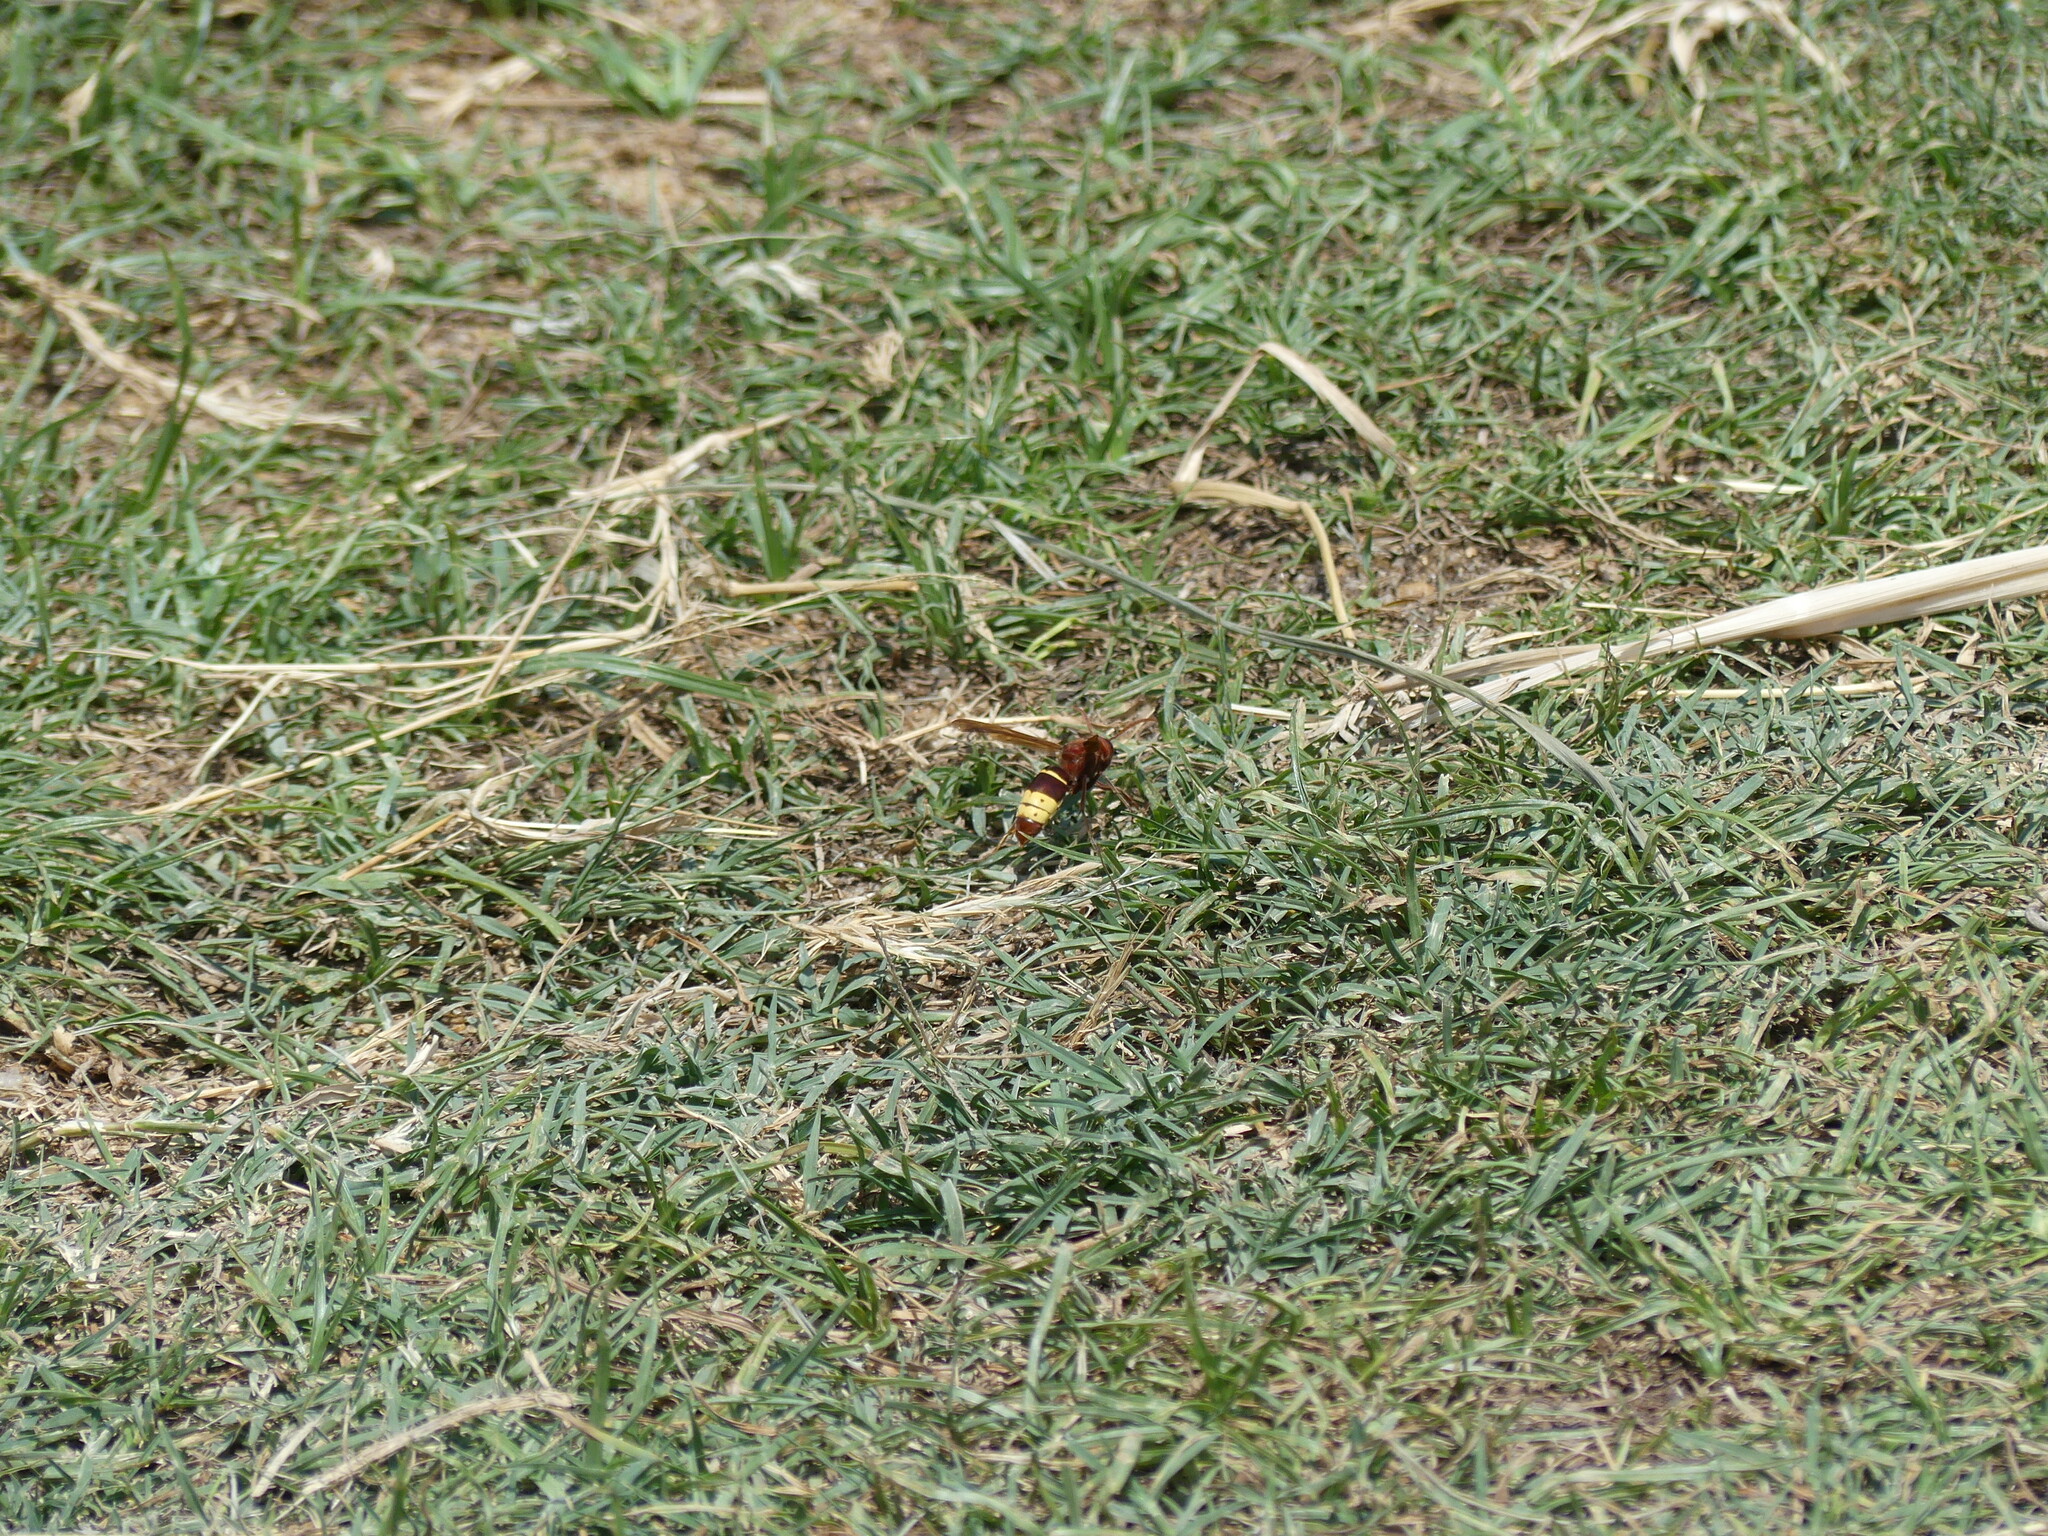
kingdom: Animalia
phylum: Arthropoda
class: Insecta
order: Hymenoptera
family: Vespidae
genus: Vespa
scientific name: Vespa orientalis
